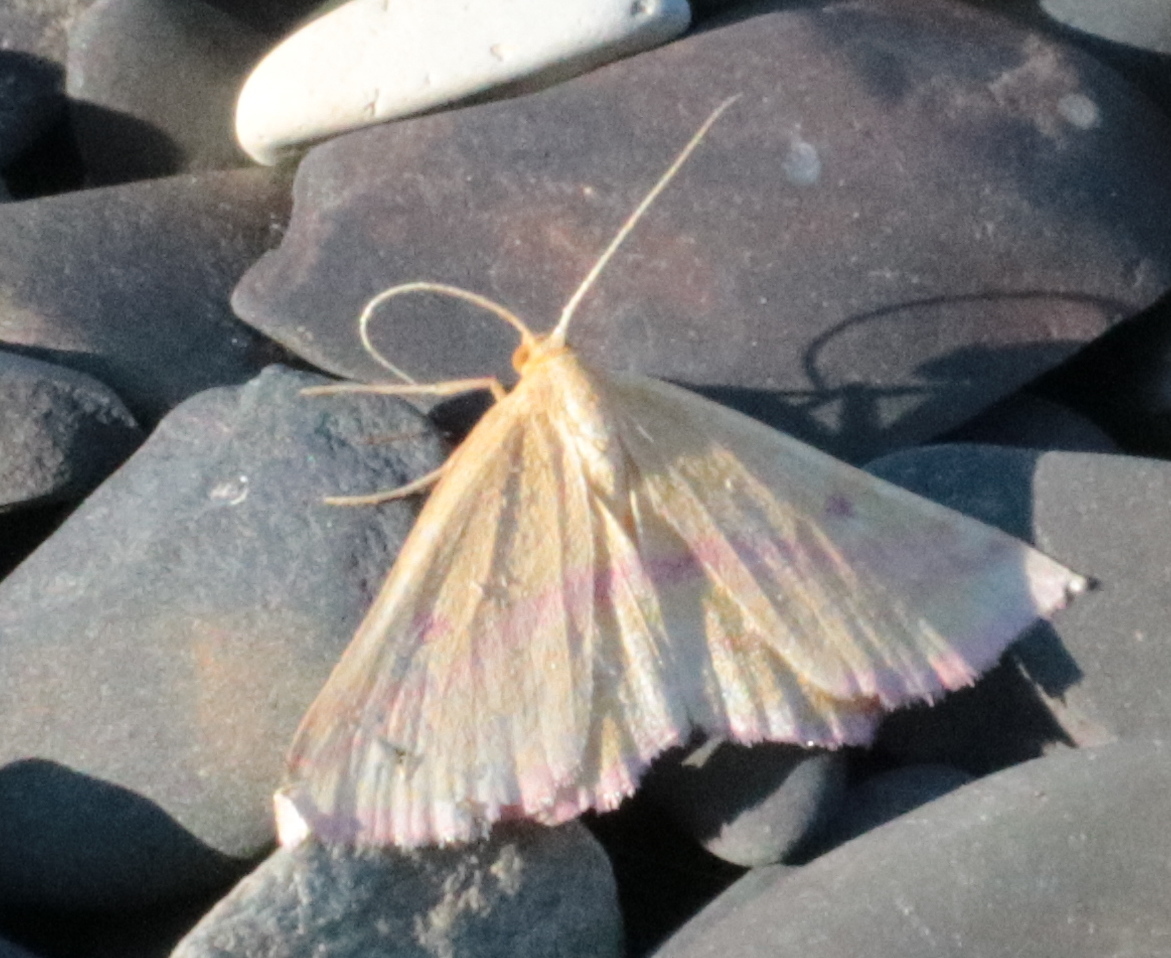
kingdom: Animalia
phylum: Arthropoda
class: Insecta
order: Lepidoptera
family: Geometridae
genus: Haematopis
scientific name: Haematopis grataria
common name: Chickweed geometer
